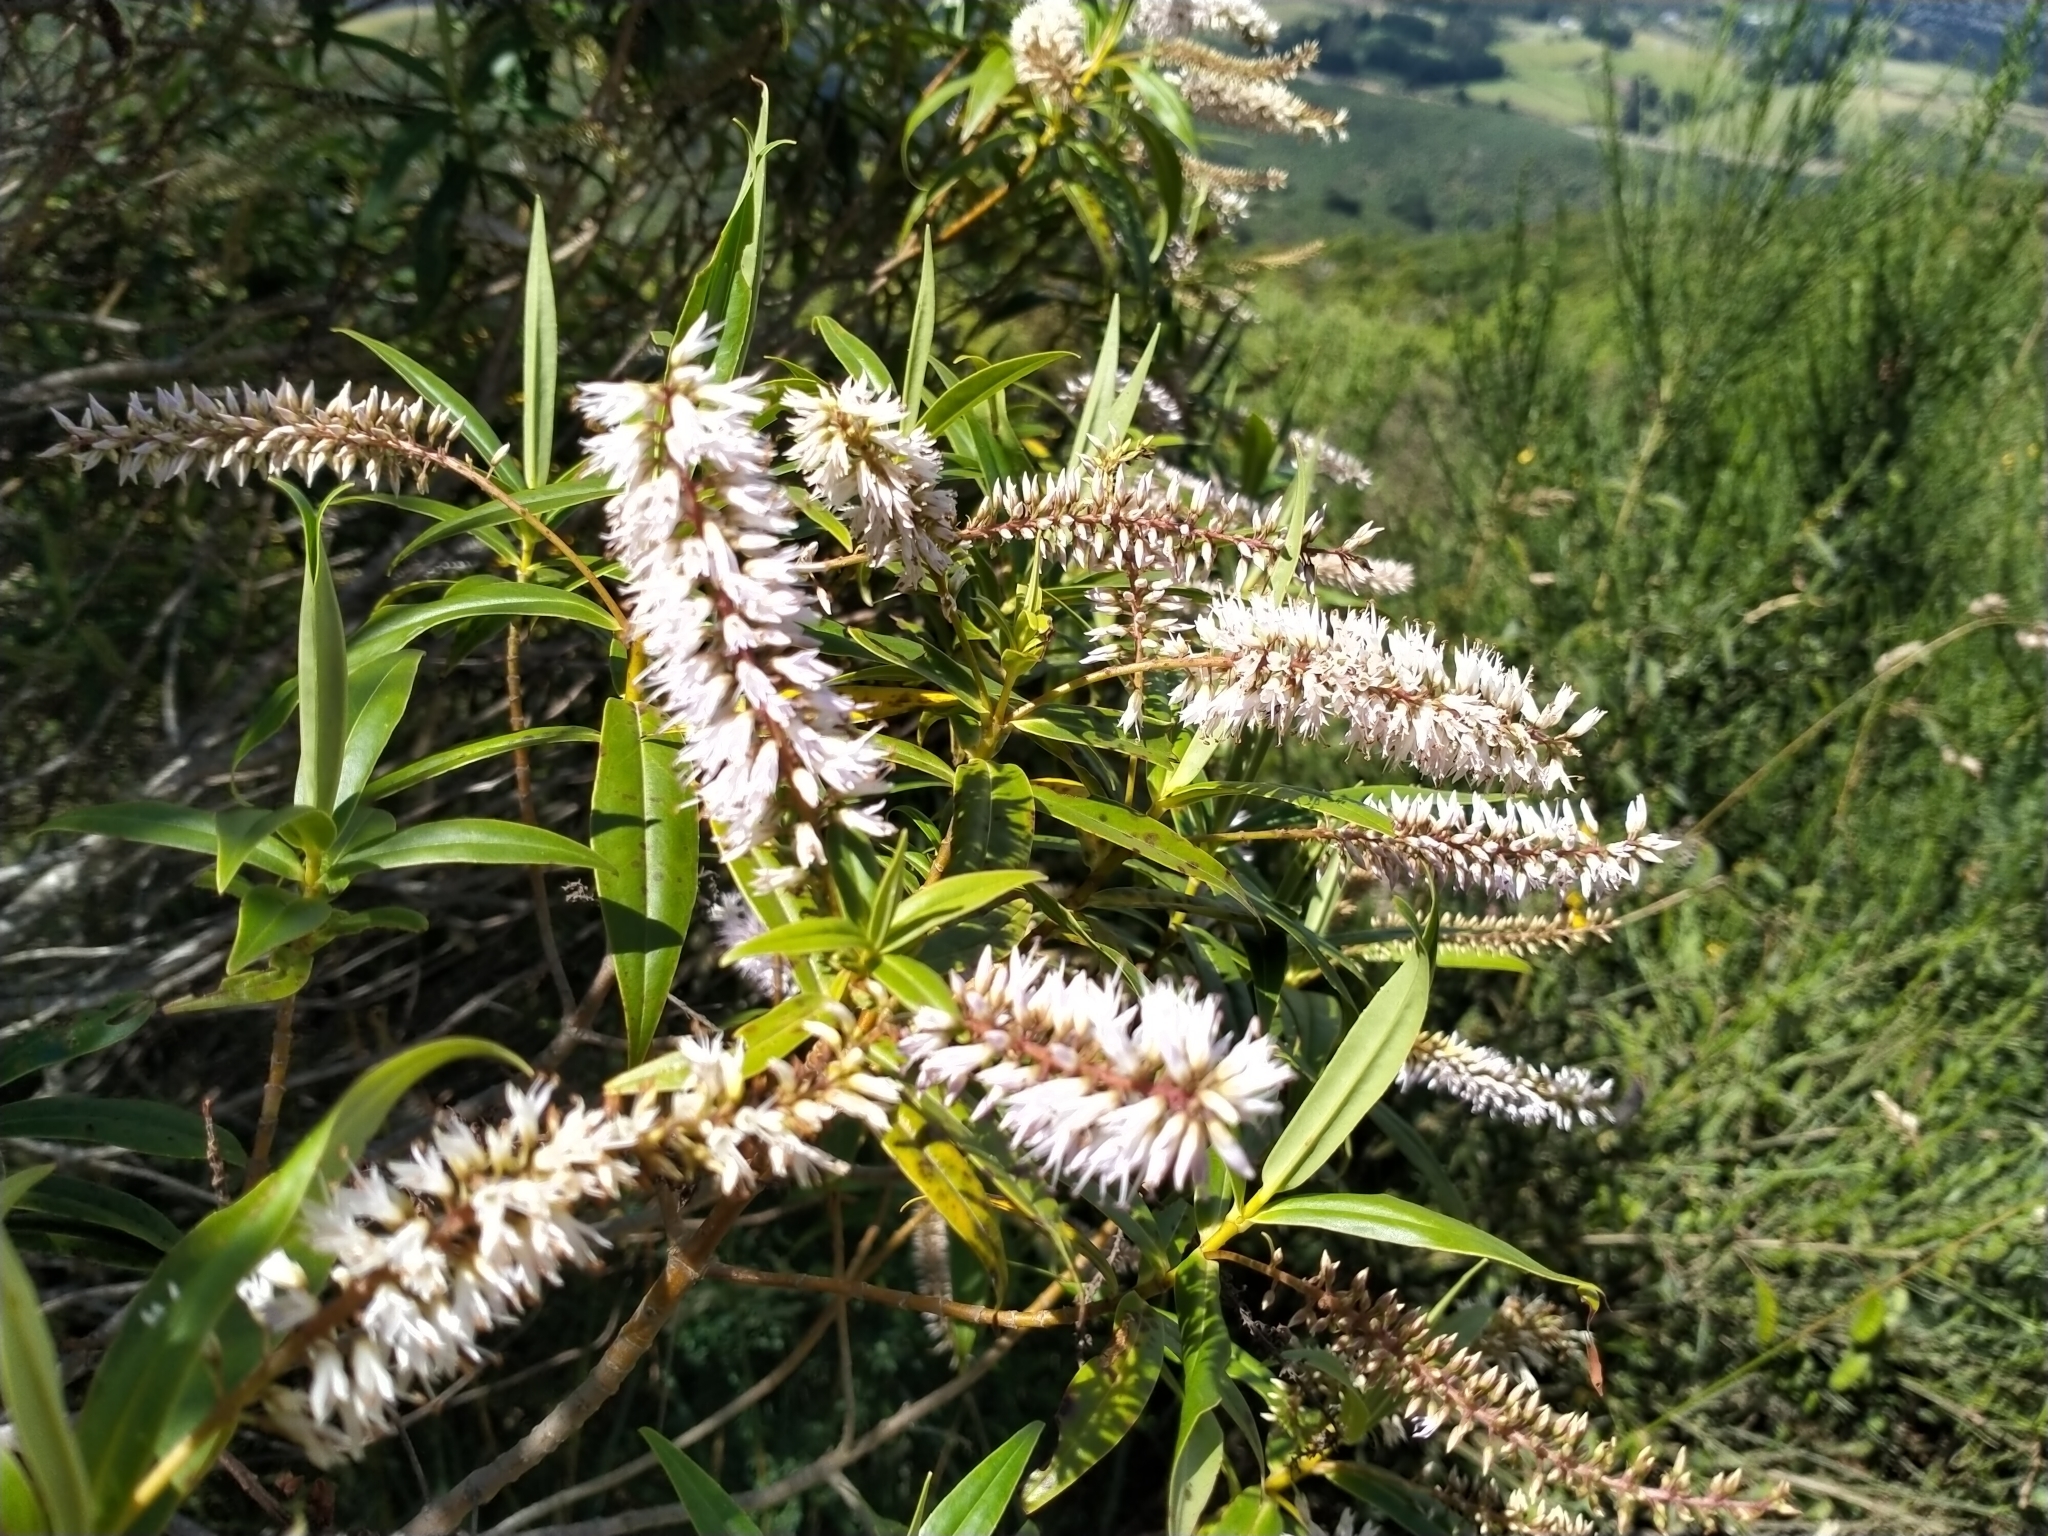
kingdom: Plantae
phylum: Tracheophyta
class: Magnoliopsida
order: Lamiales
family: Plantaginaceae
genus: Veronica
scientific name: Veronica salicifolia
